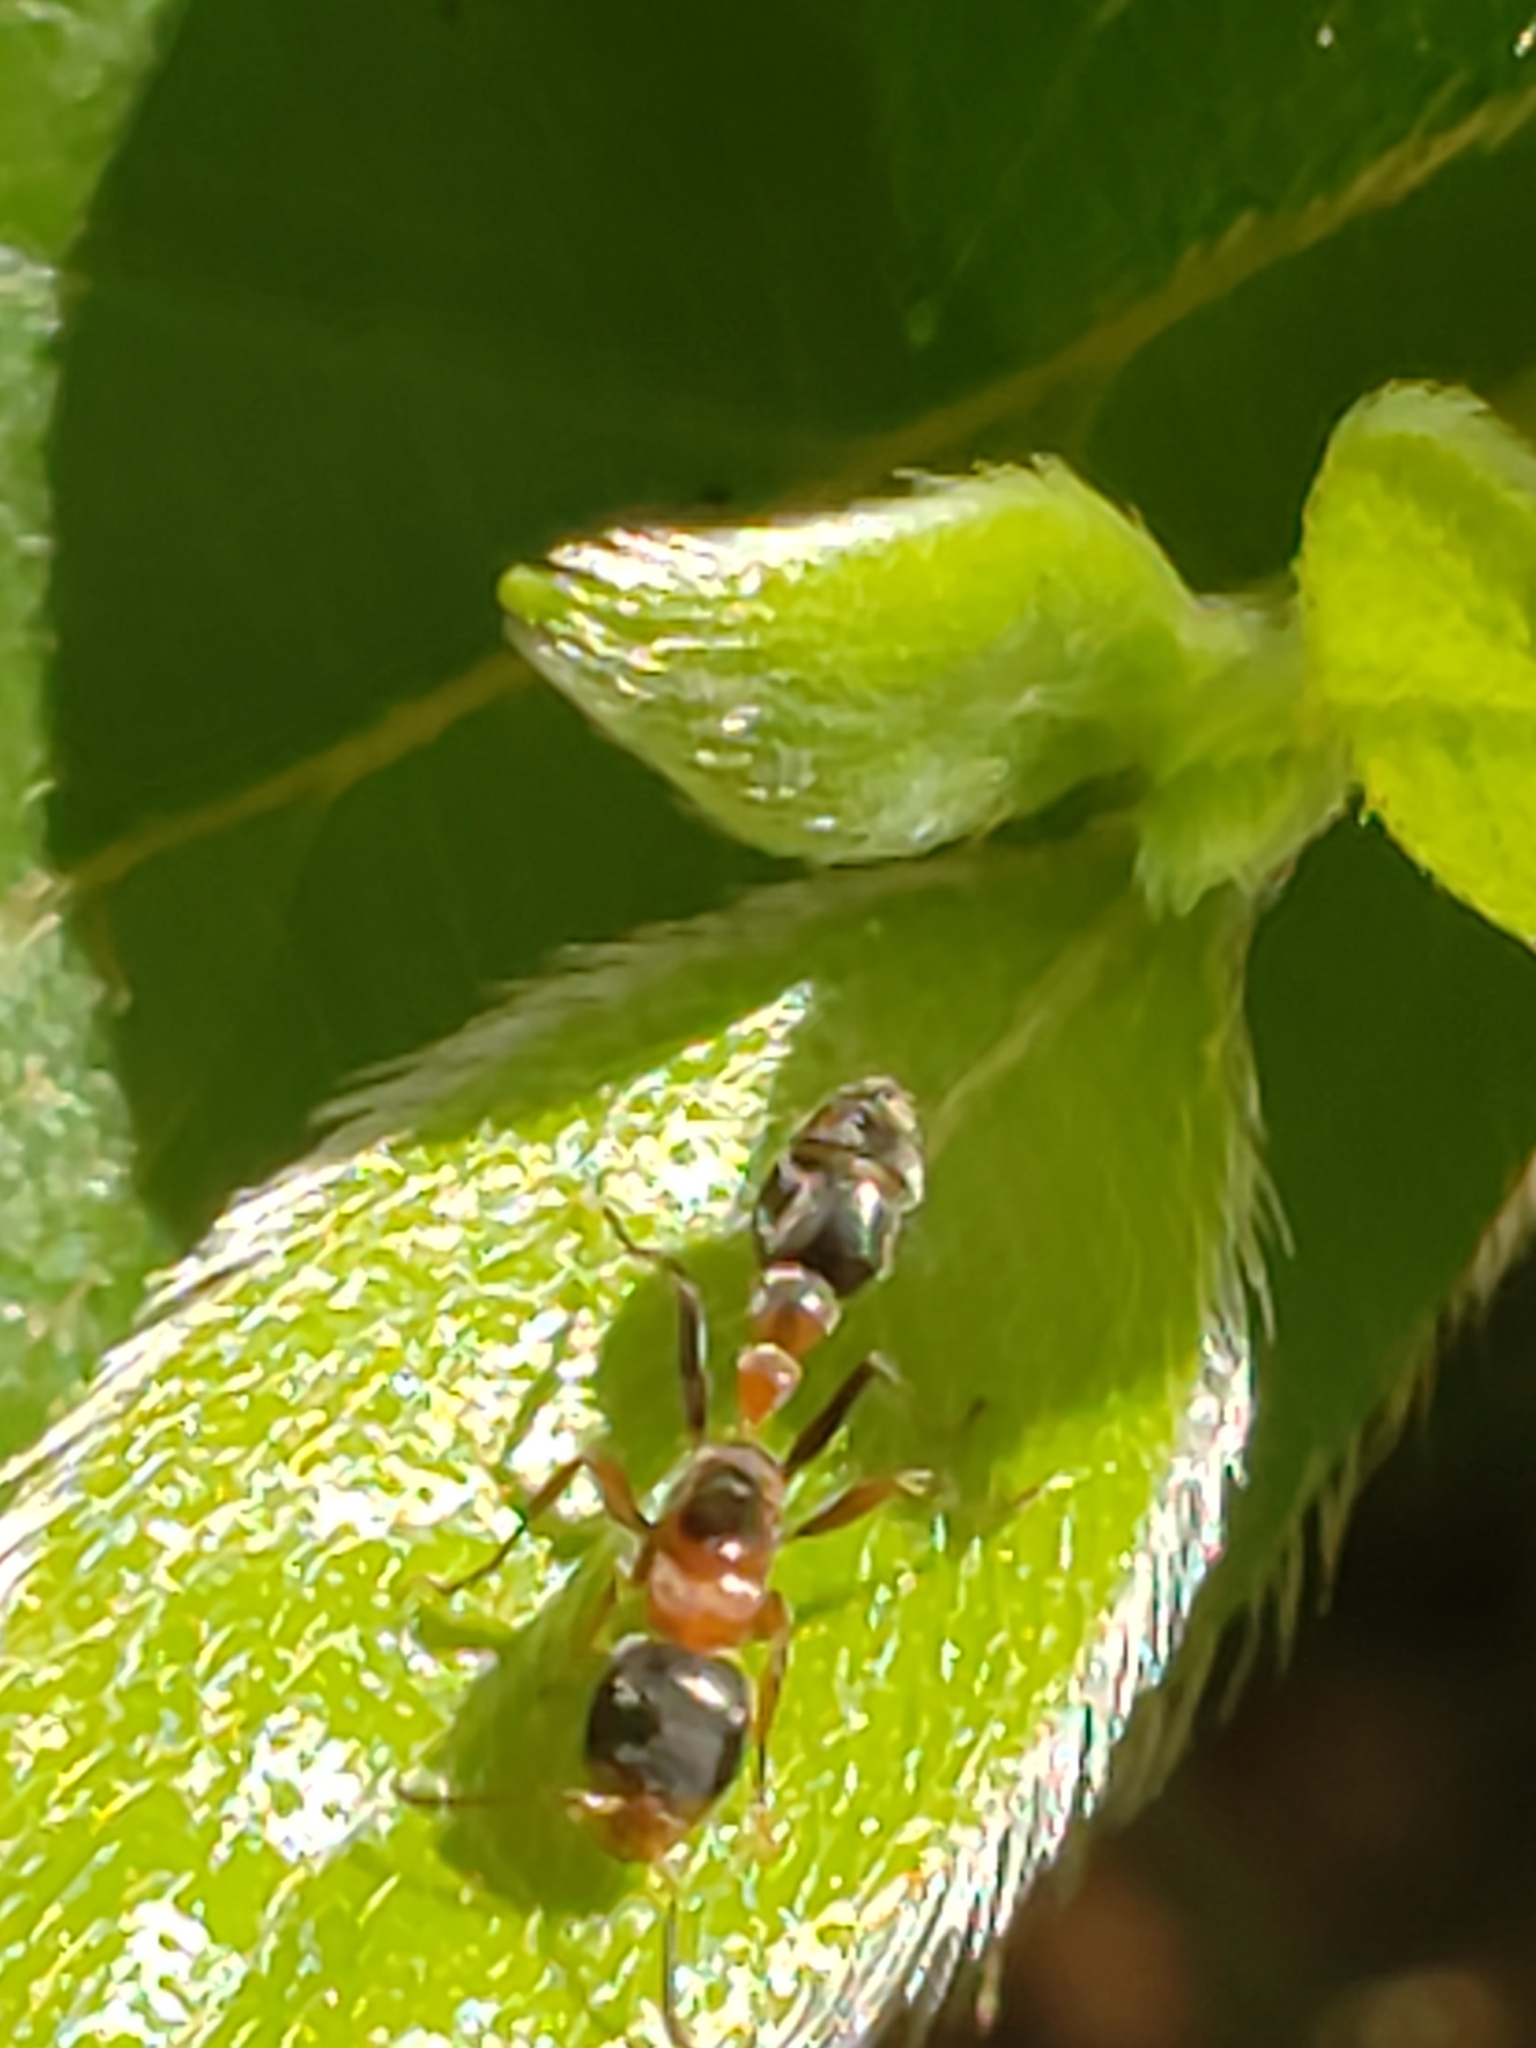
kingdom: Animalia
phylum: Arthropoda
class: Insecta
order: Hymenoptera
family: Formicidae
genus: Pseudomyrmex
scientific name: Pseudomyrmex gracilis
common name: Graceful twig ant
